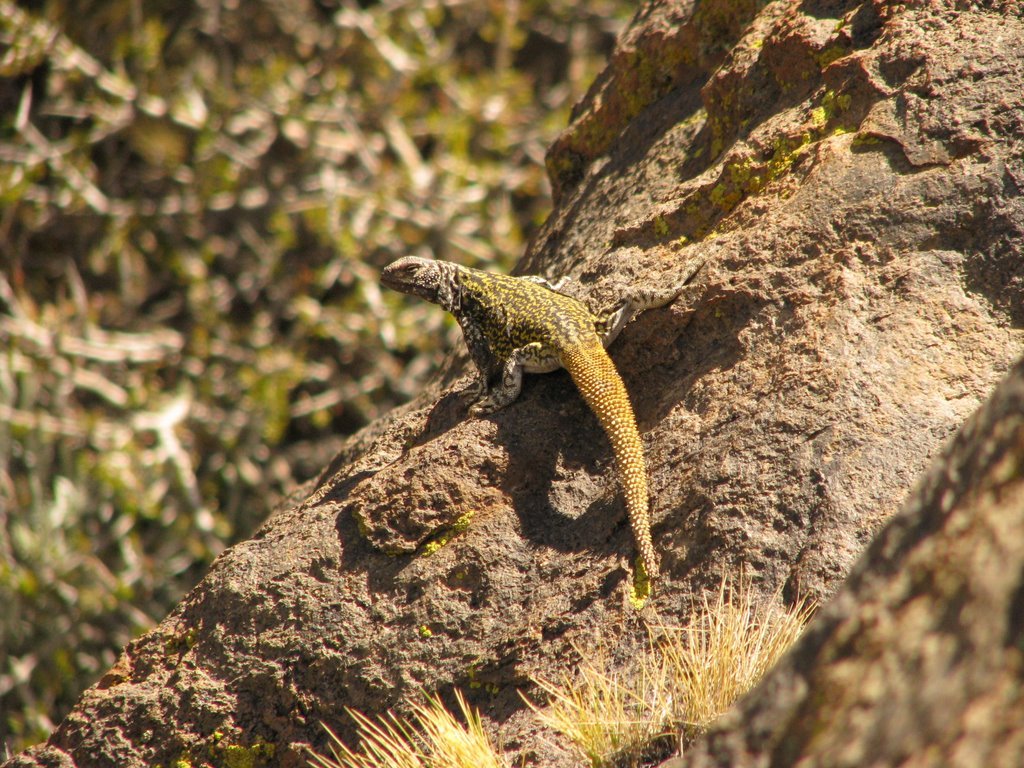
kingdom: Animalia
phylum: Chordata
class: Squamata
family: Liolaemidae
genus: Phymaturus
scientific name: Phymaturus roigorum
